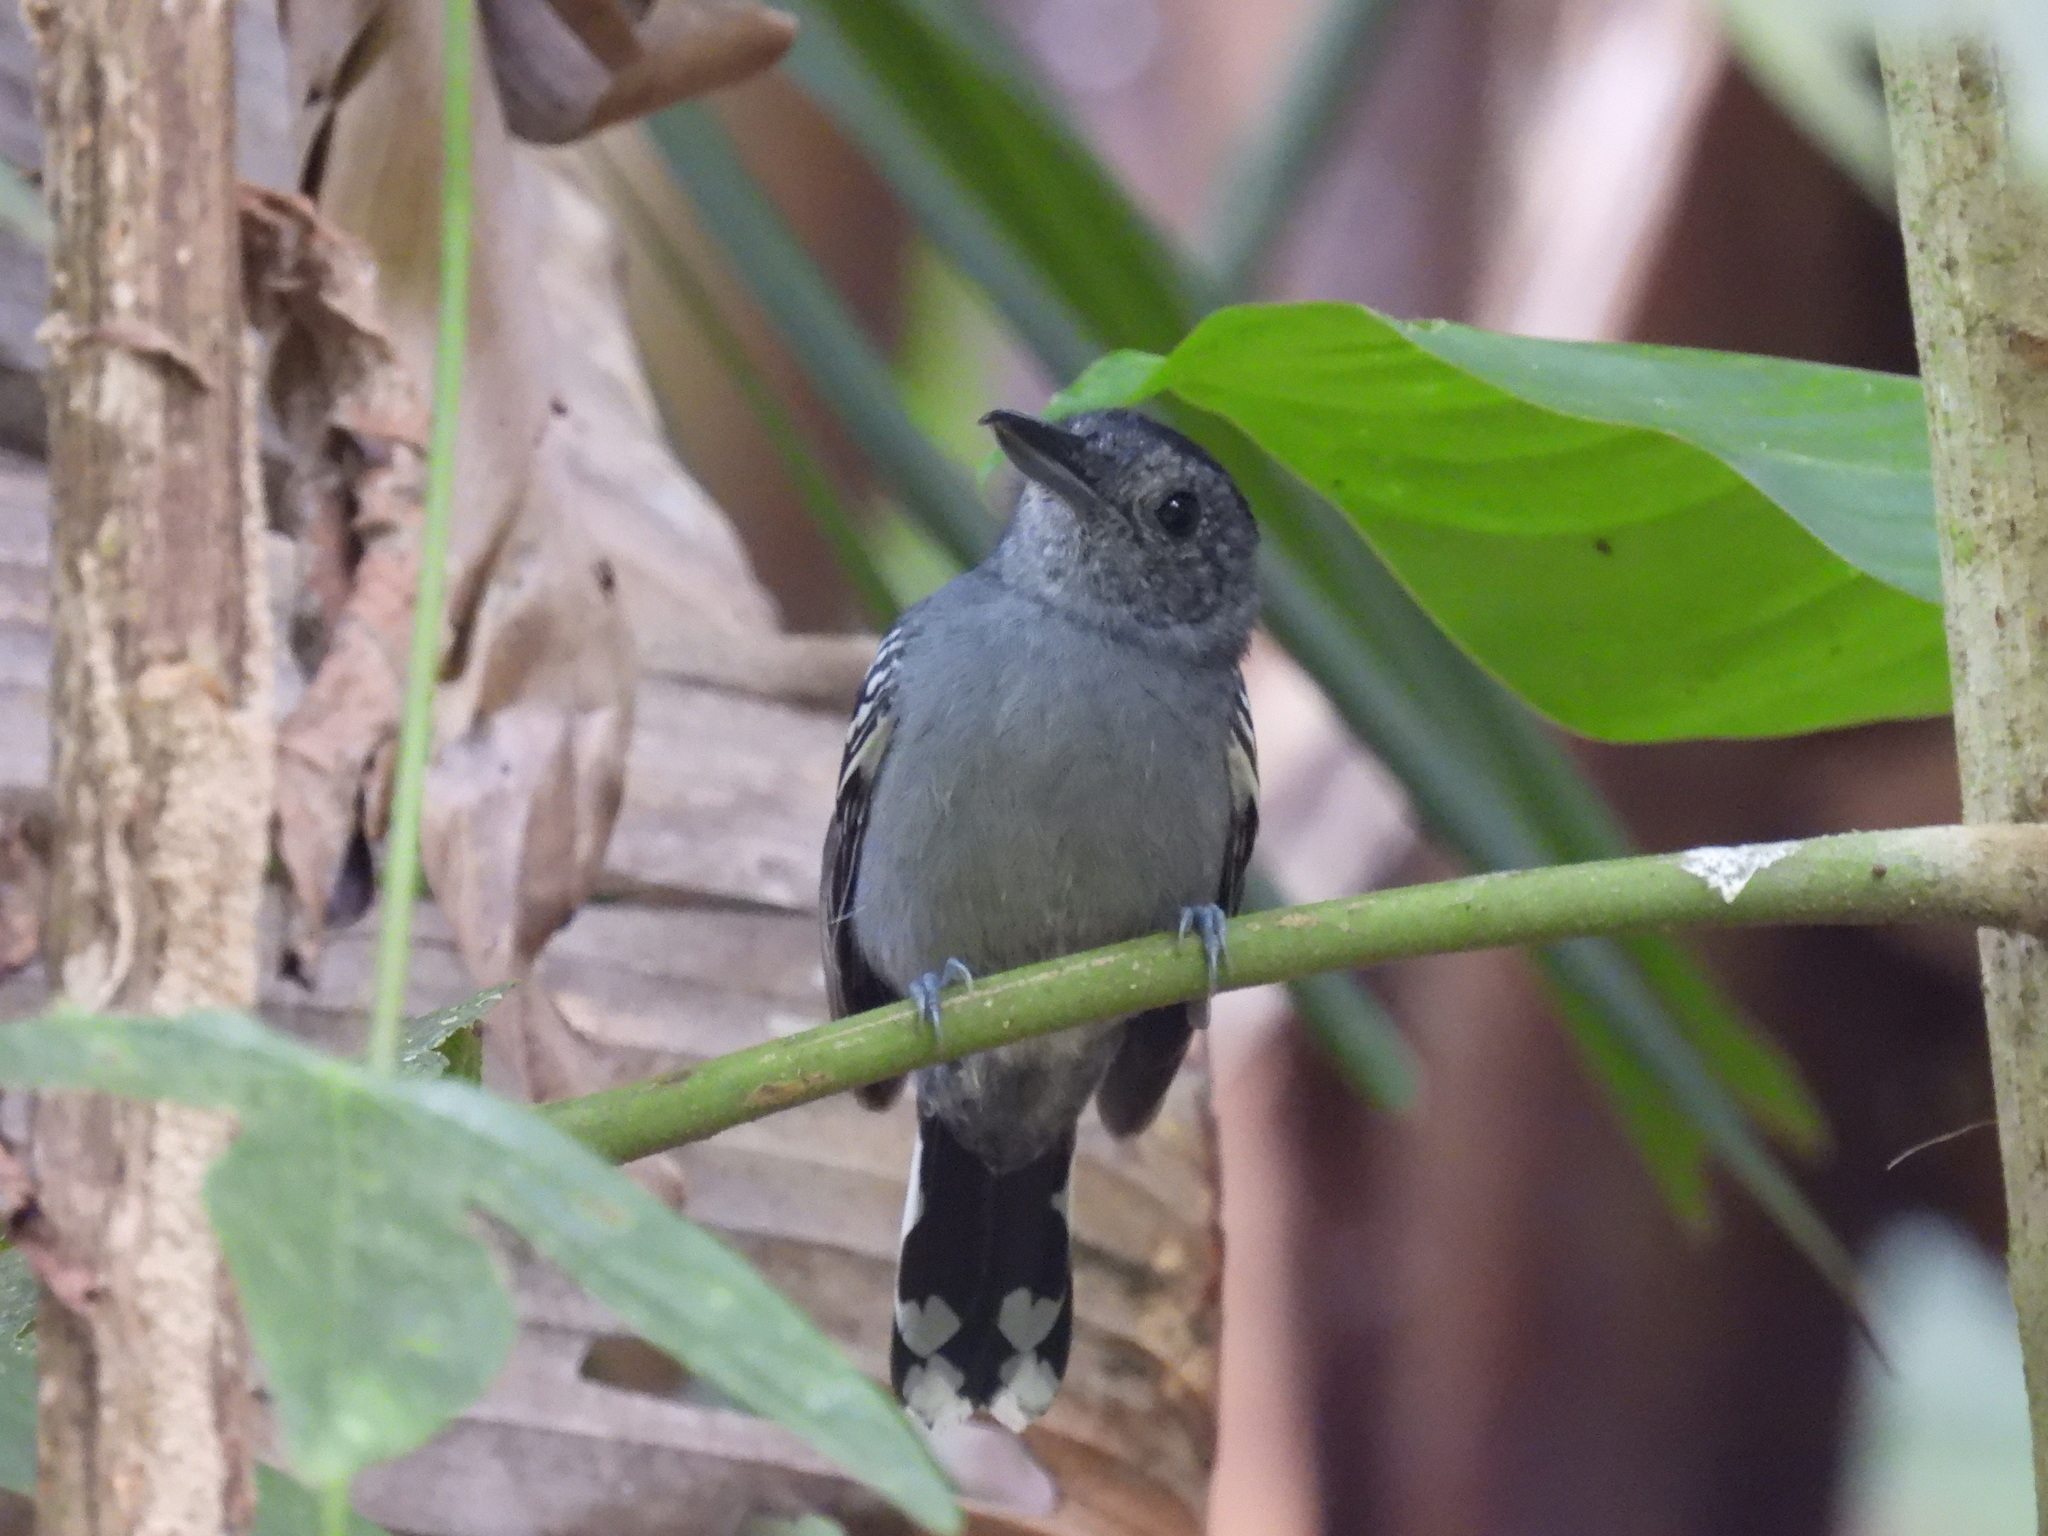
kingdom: Animalia
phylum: Chordata
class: Aves
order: Passeriformes
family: Thamnophilidae
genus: Thamnophilus
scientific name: Thamnophilus atrinucha
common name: Black-crowned antshrike
